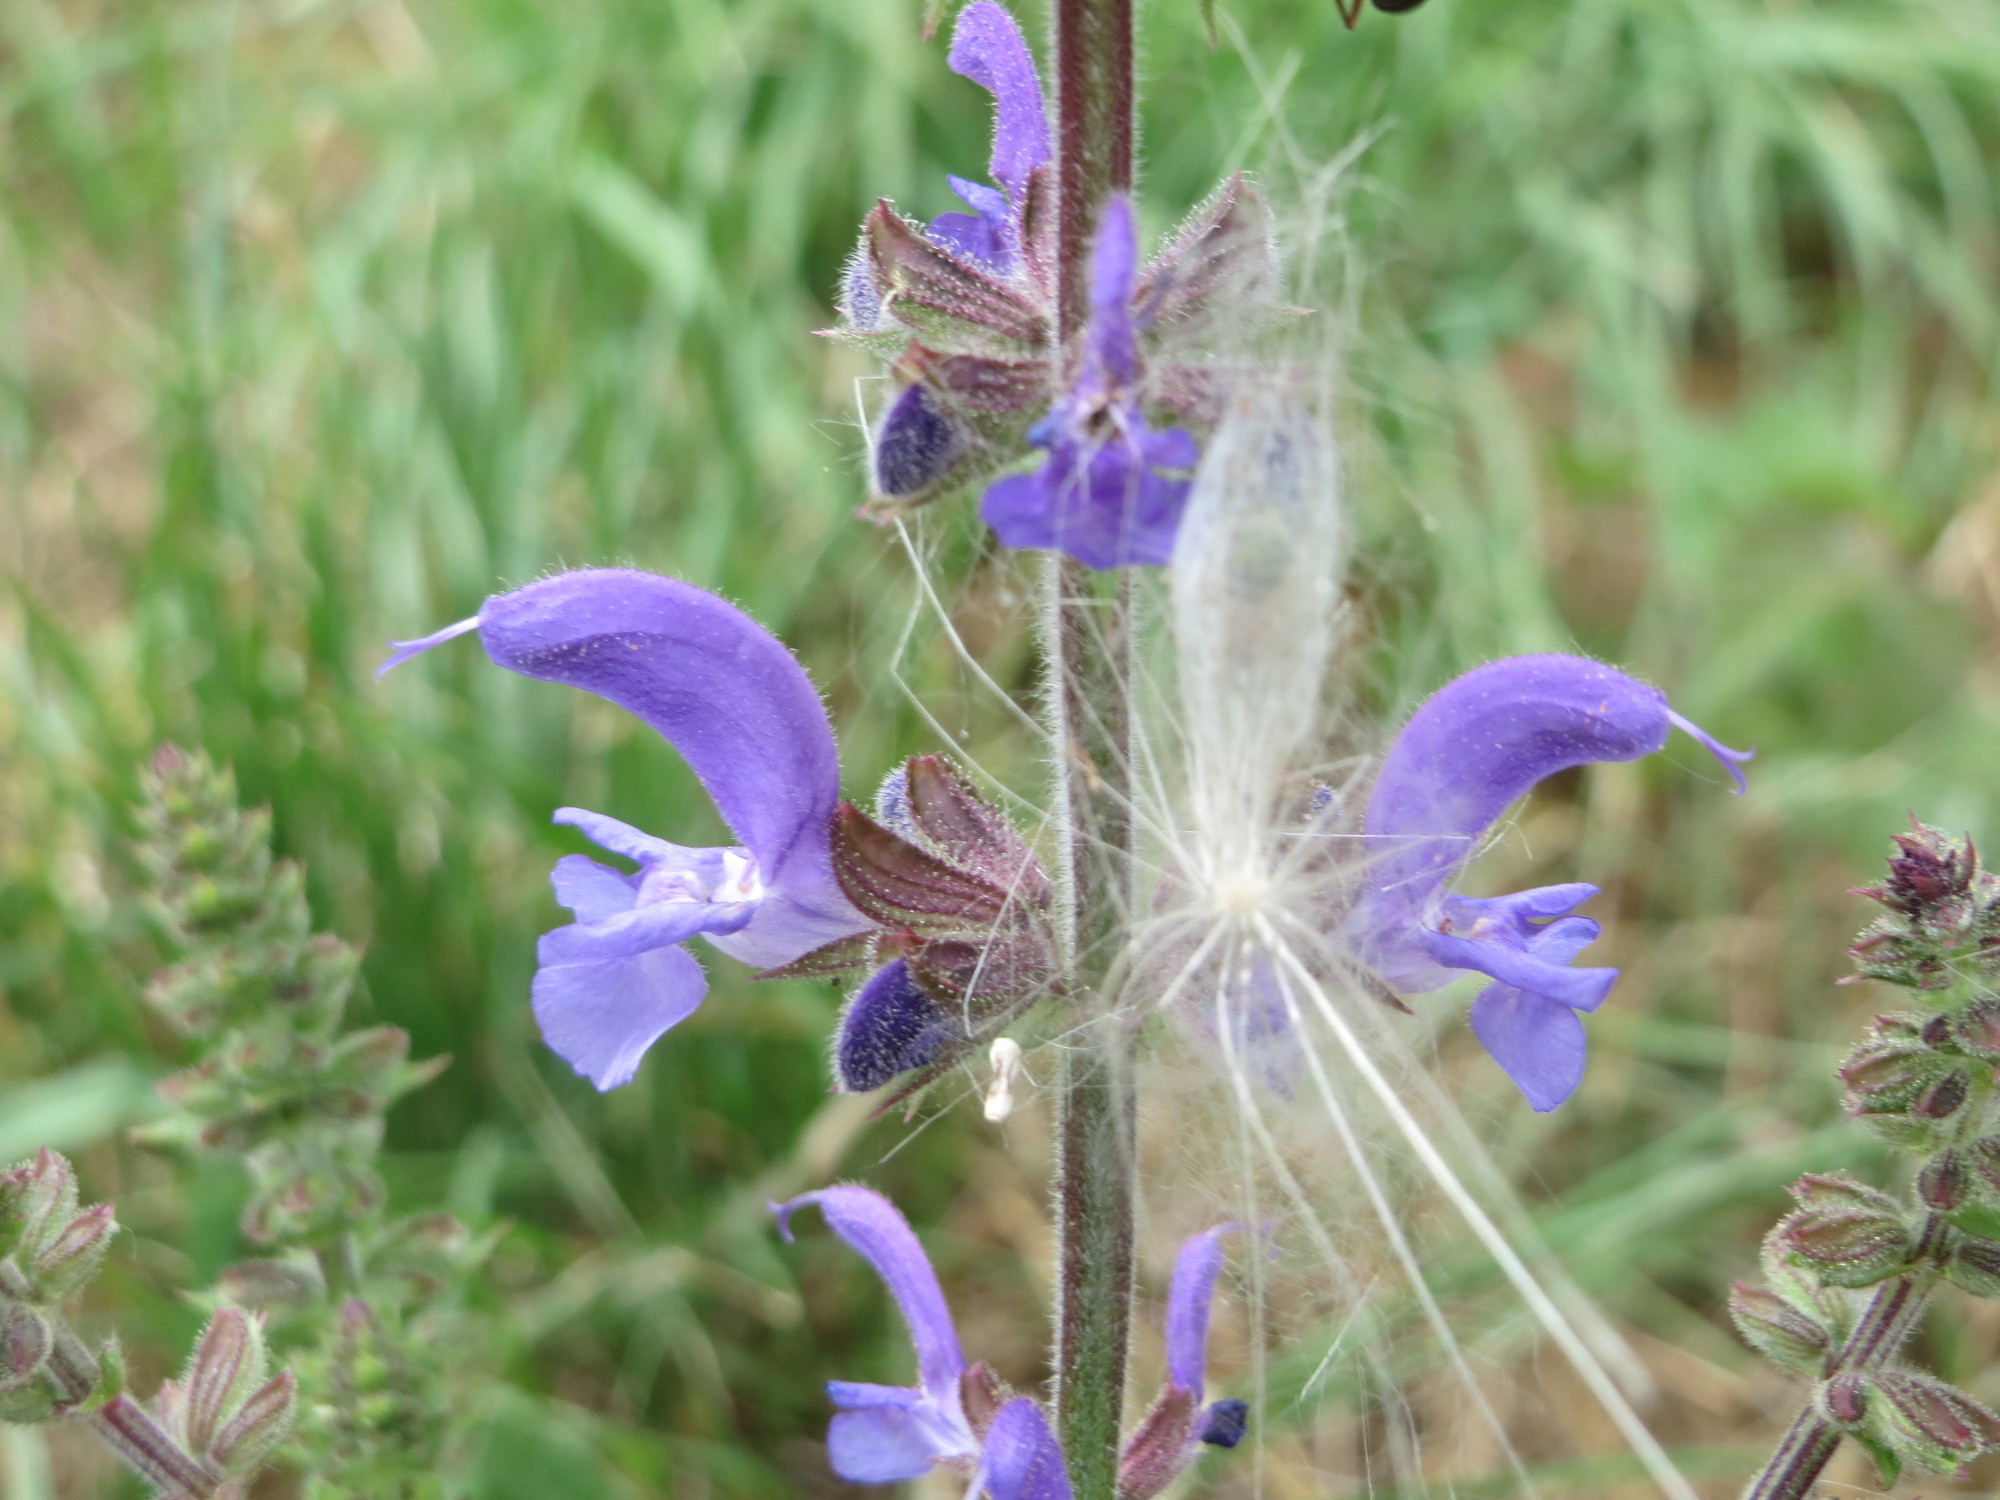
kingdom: Plantae
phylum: Tracheophyta
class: Magnoliopsida
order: Lamiales
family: Lamiaceae
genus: Salvia
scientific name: Salvia pratensis
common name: Meadow sage
